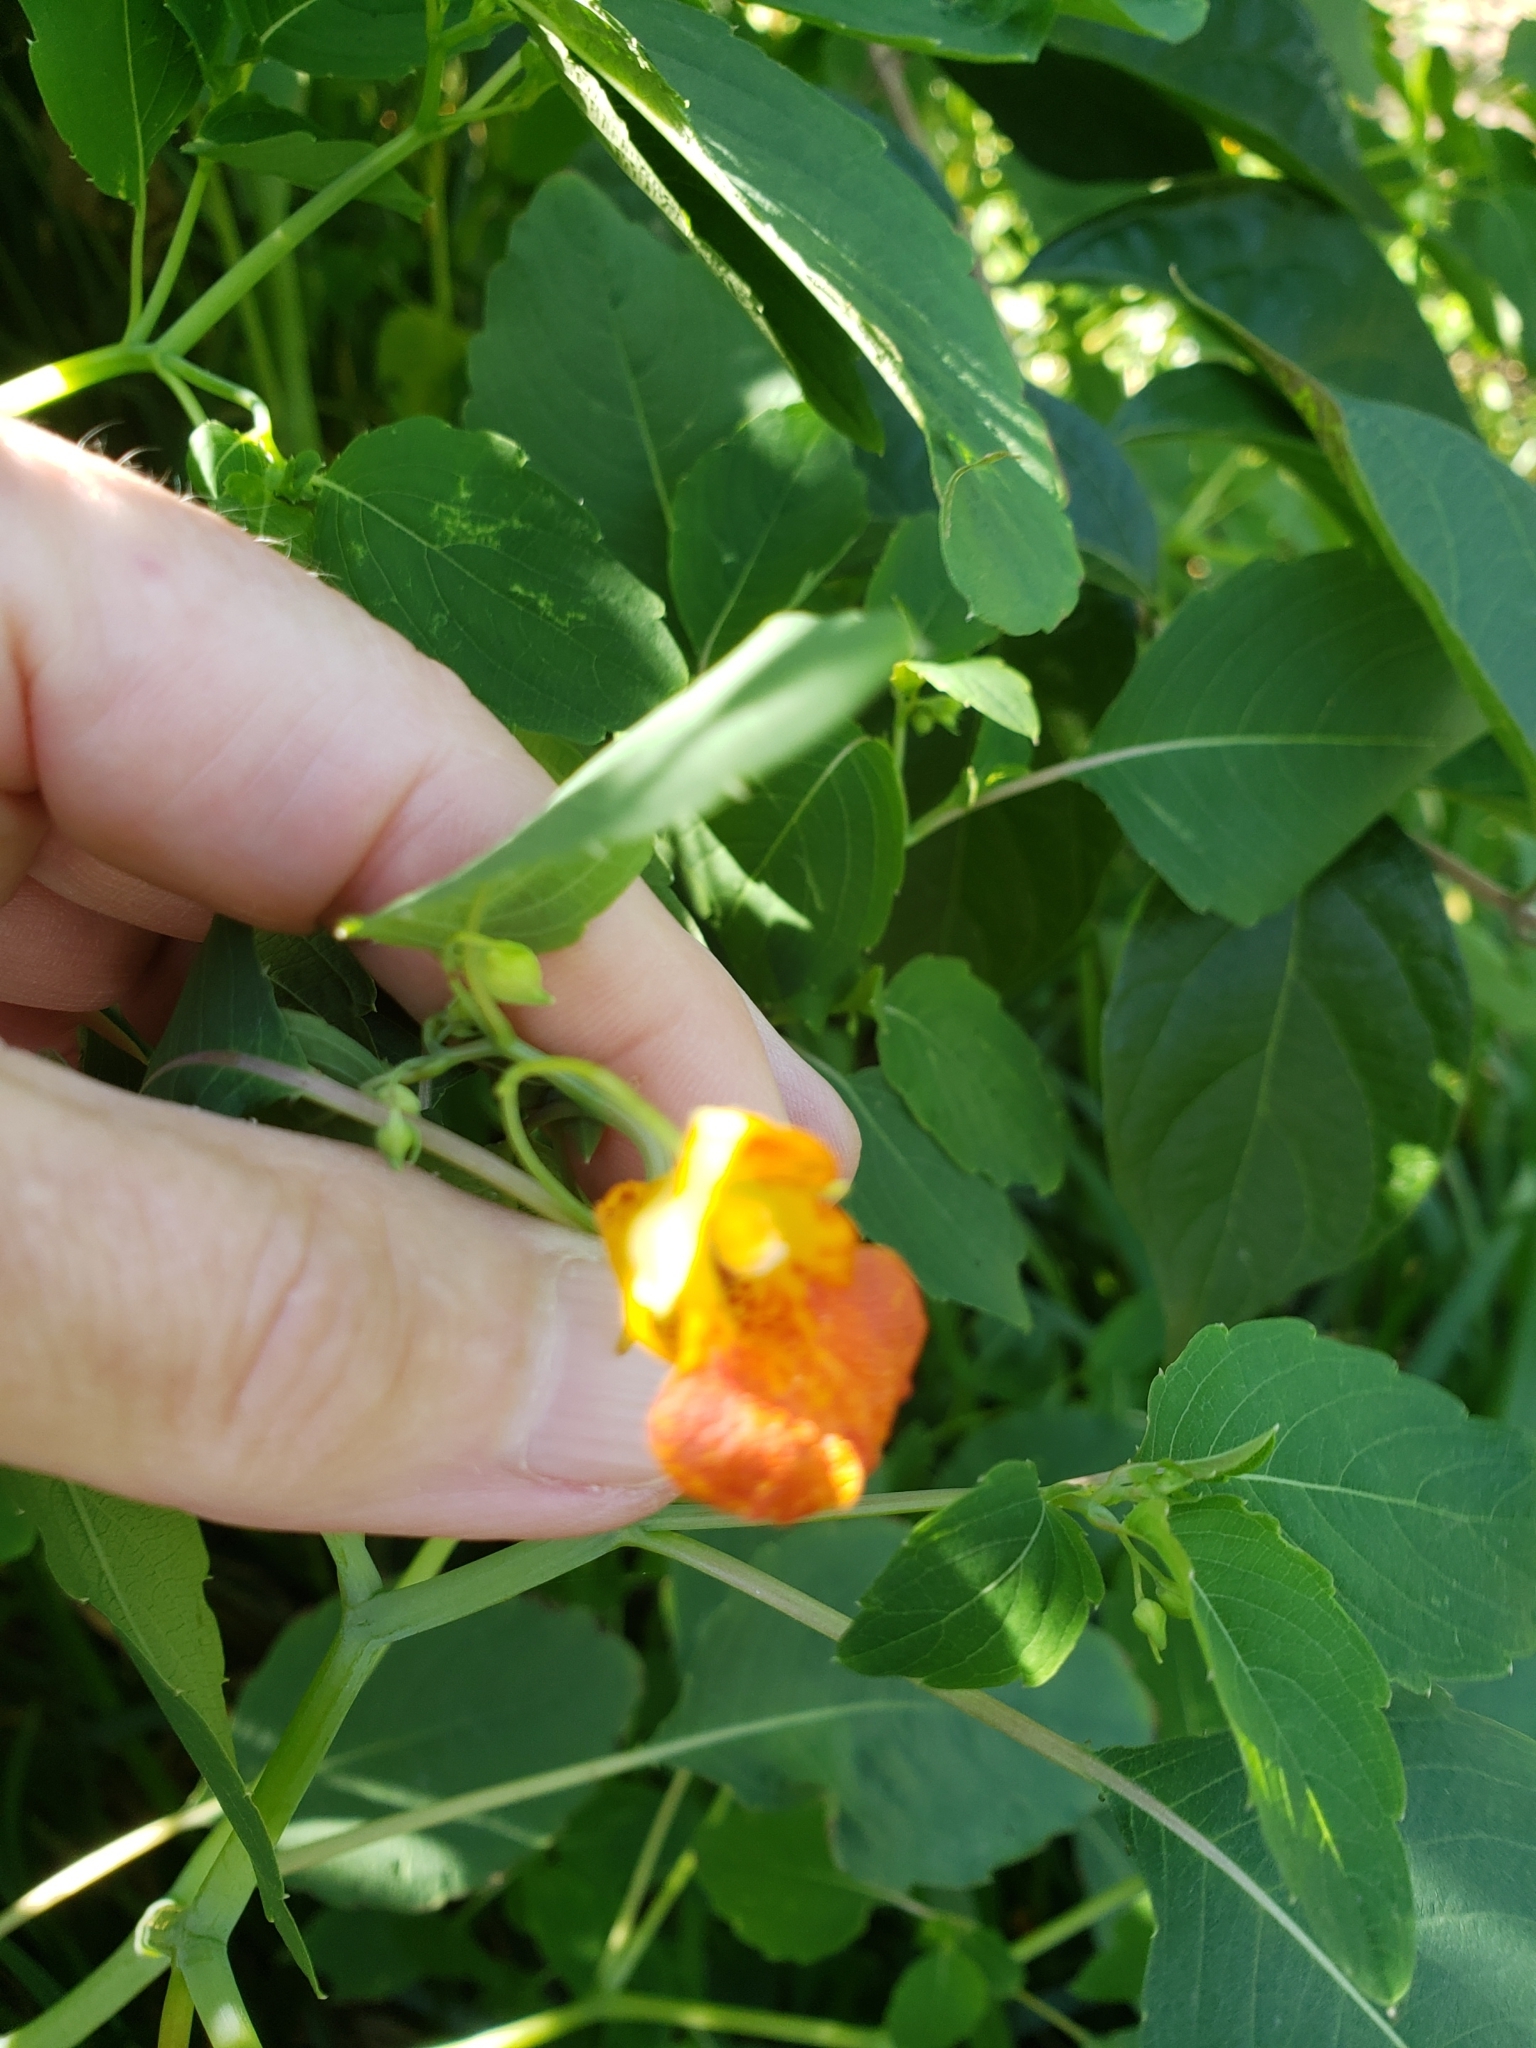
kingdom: Plantae
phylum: Tracheophyta
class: Magnoliopsida
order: Ericales
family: Balsaminaceae
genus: Impatiens
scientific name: Impatiens capensis
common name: Orange balsam
